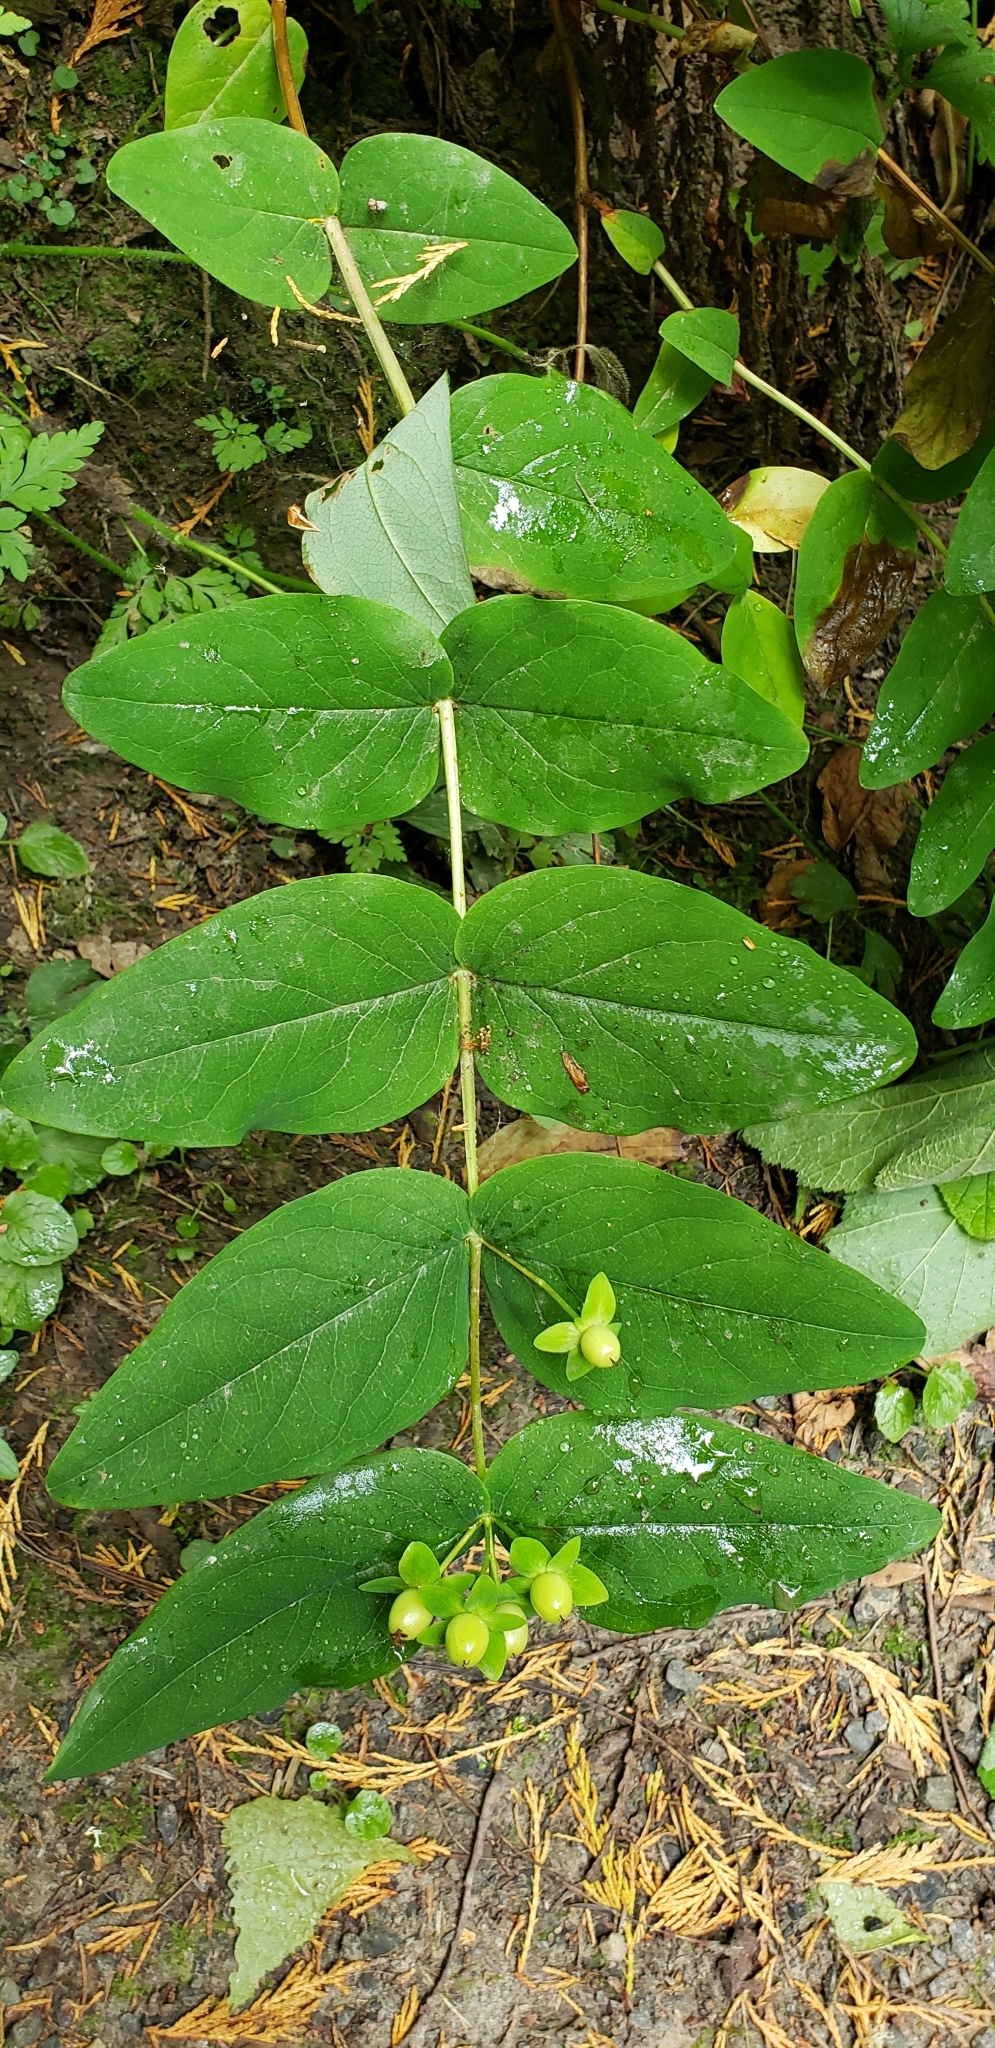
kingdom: Plantae
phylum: Tracheophyta
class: Magnoliopsida
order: Malpighiales
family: Hypericaceae
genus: Hypericum
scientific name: Hypericum androsaemum
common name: Sweet-amber
